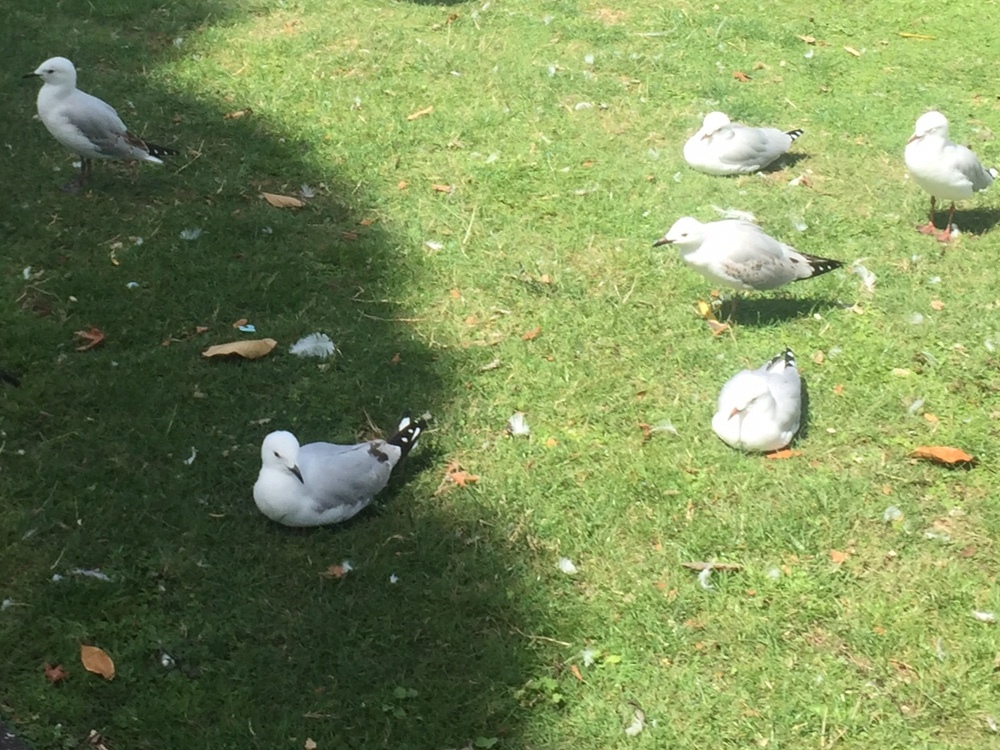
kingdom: Animalia
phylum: Chordata
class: Aves
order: Charadriiformes
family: Laridae
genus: Chroicocephalus
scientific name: Chroicocephalus novaehollandiae
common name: Silver gull
